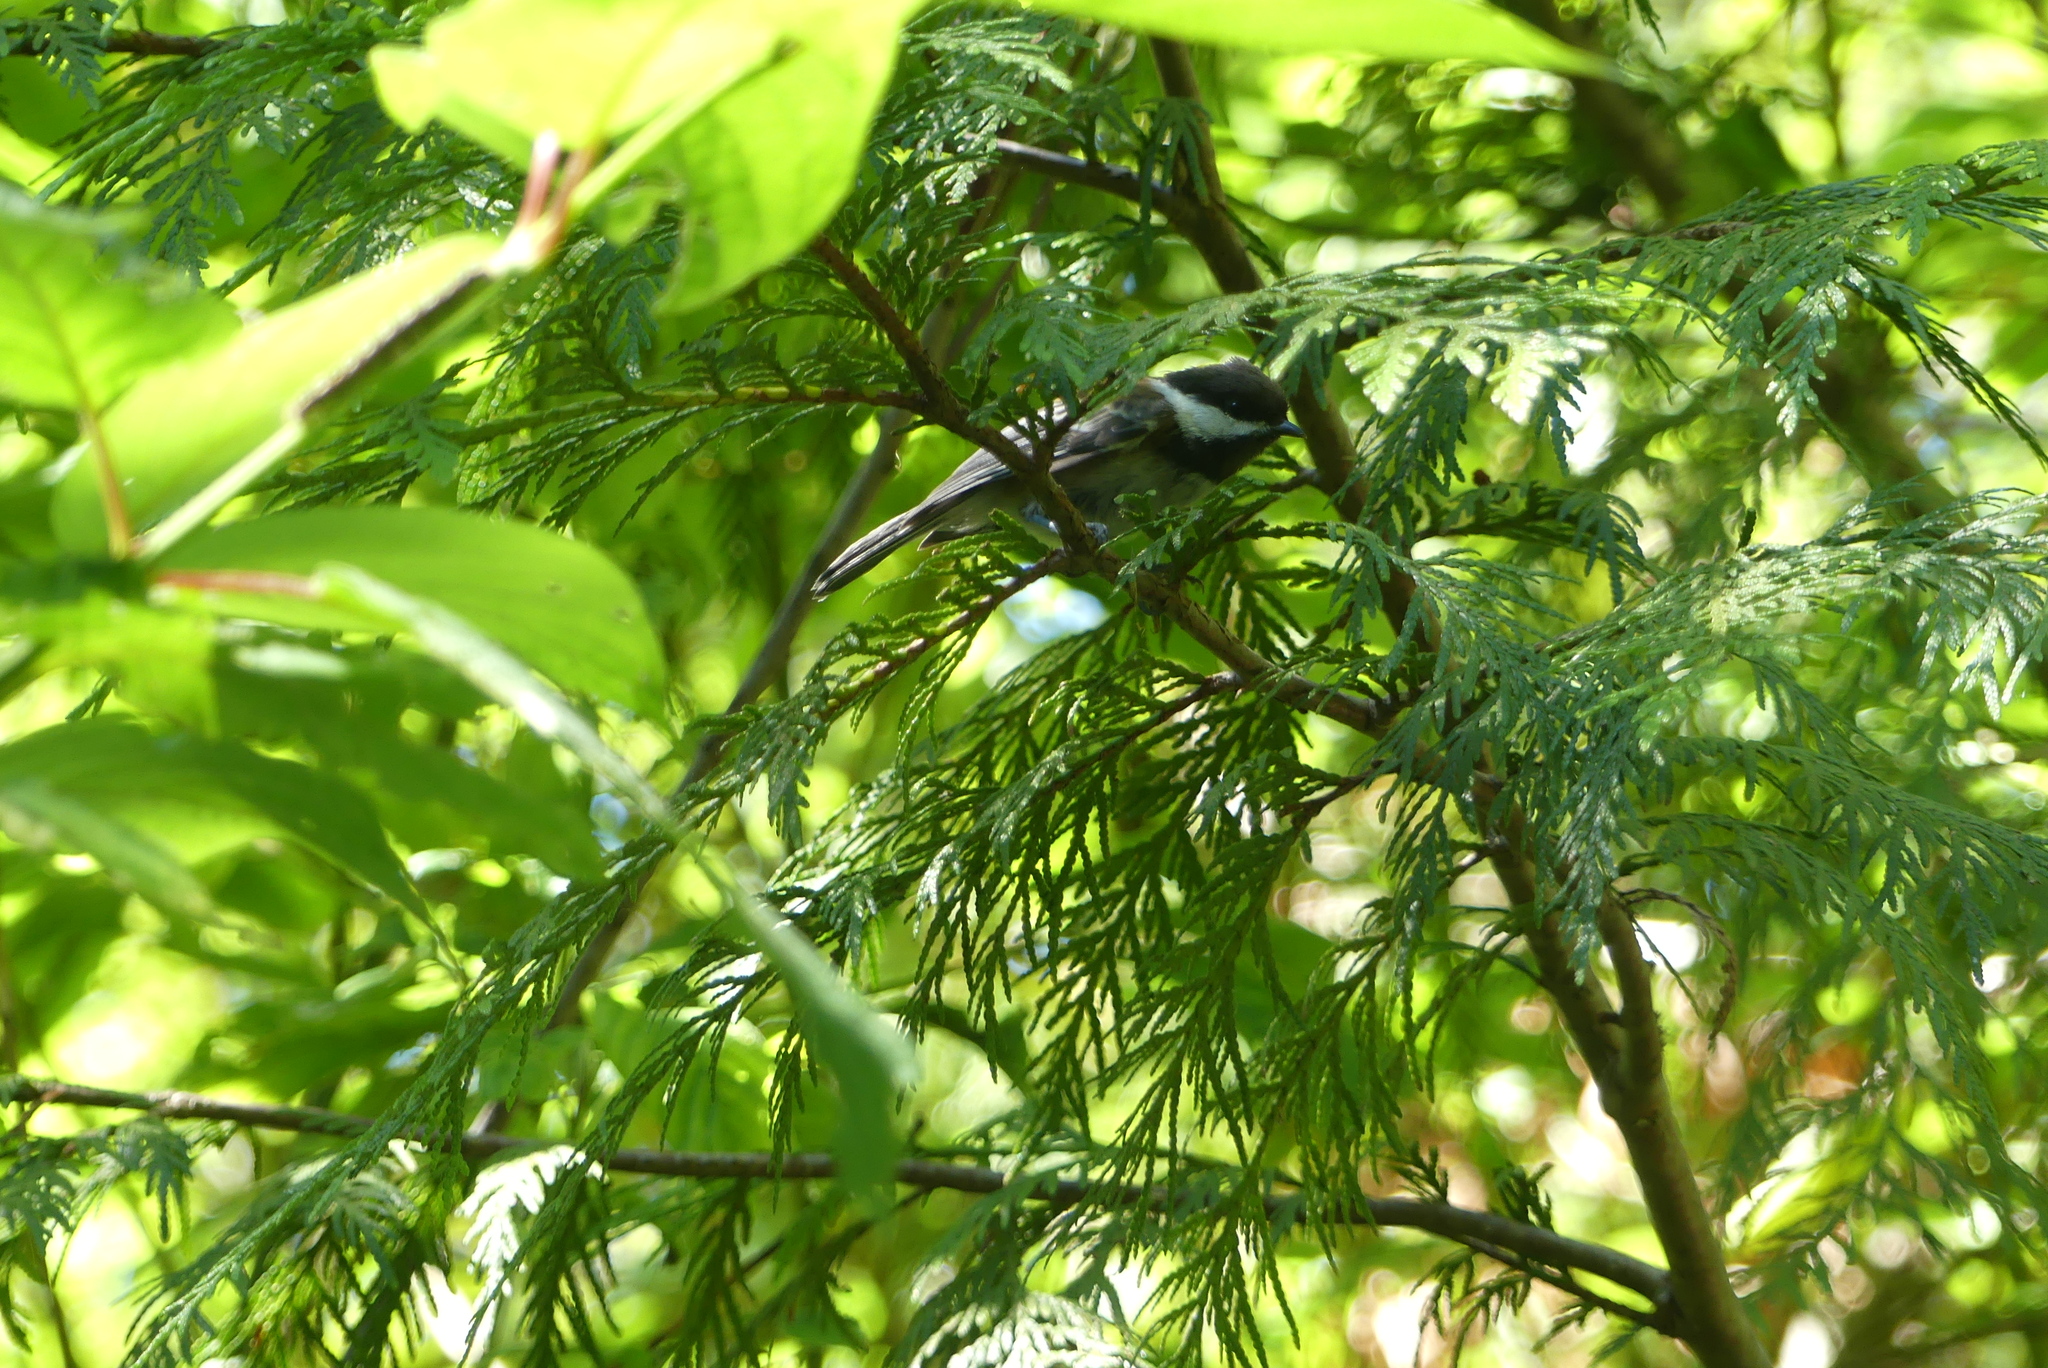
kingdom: Animalia
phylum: Chordata
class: Aves
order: Passeriformes
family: Paridae
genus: Poecile
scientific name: Poecile rufescens
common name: Chestnut-backed chickadee
